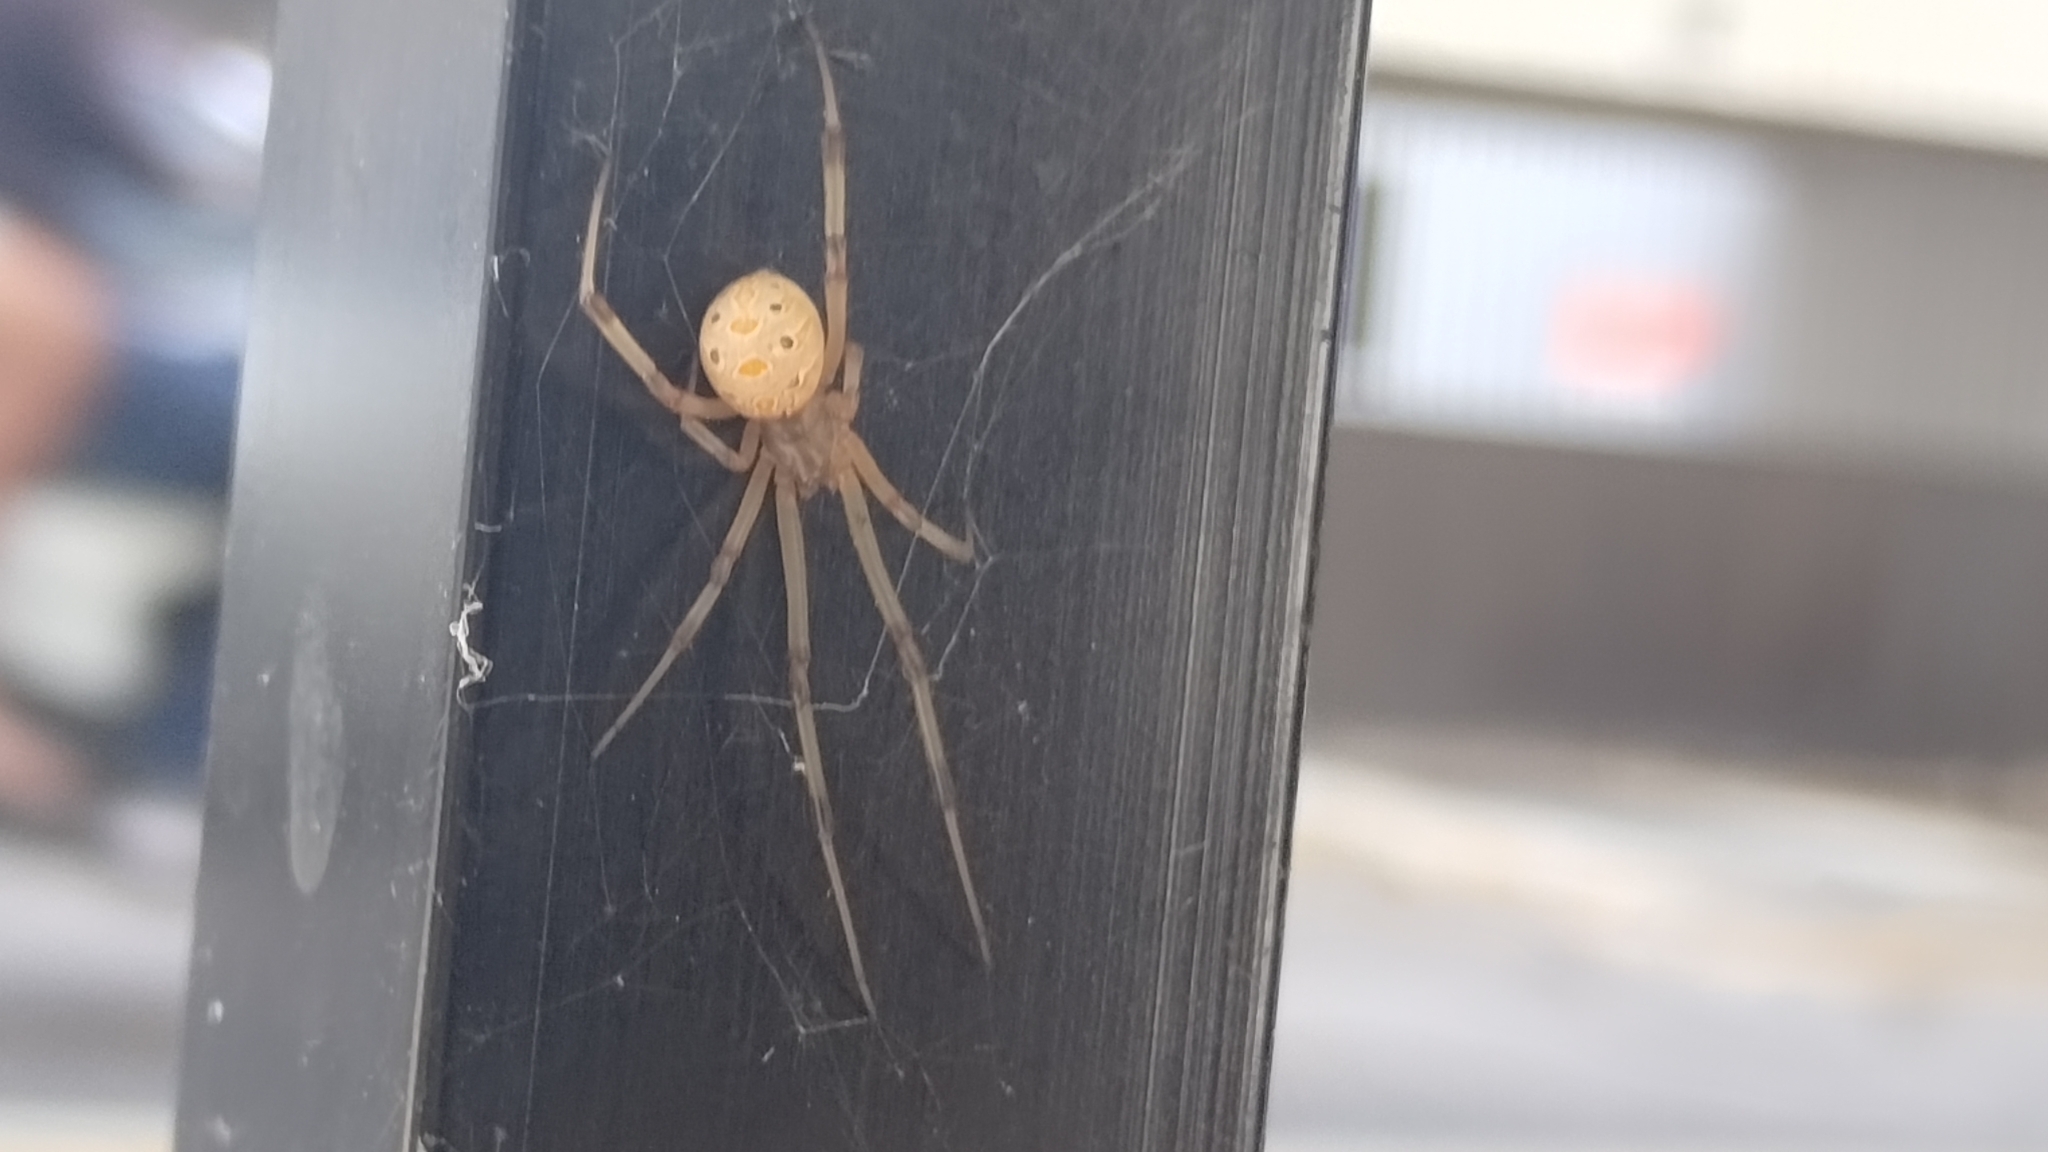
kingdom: Animalia
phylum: Arthropoda
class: Arachnida
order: Araneae
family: Theridiidae
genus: Latrodectus
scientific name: Latrodectus geometricus
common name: Brown widow spider
